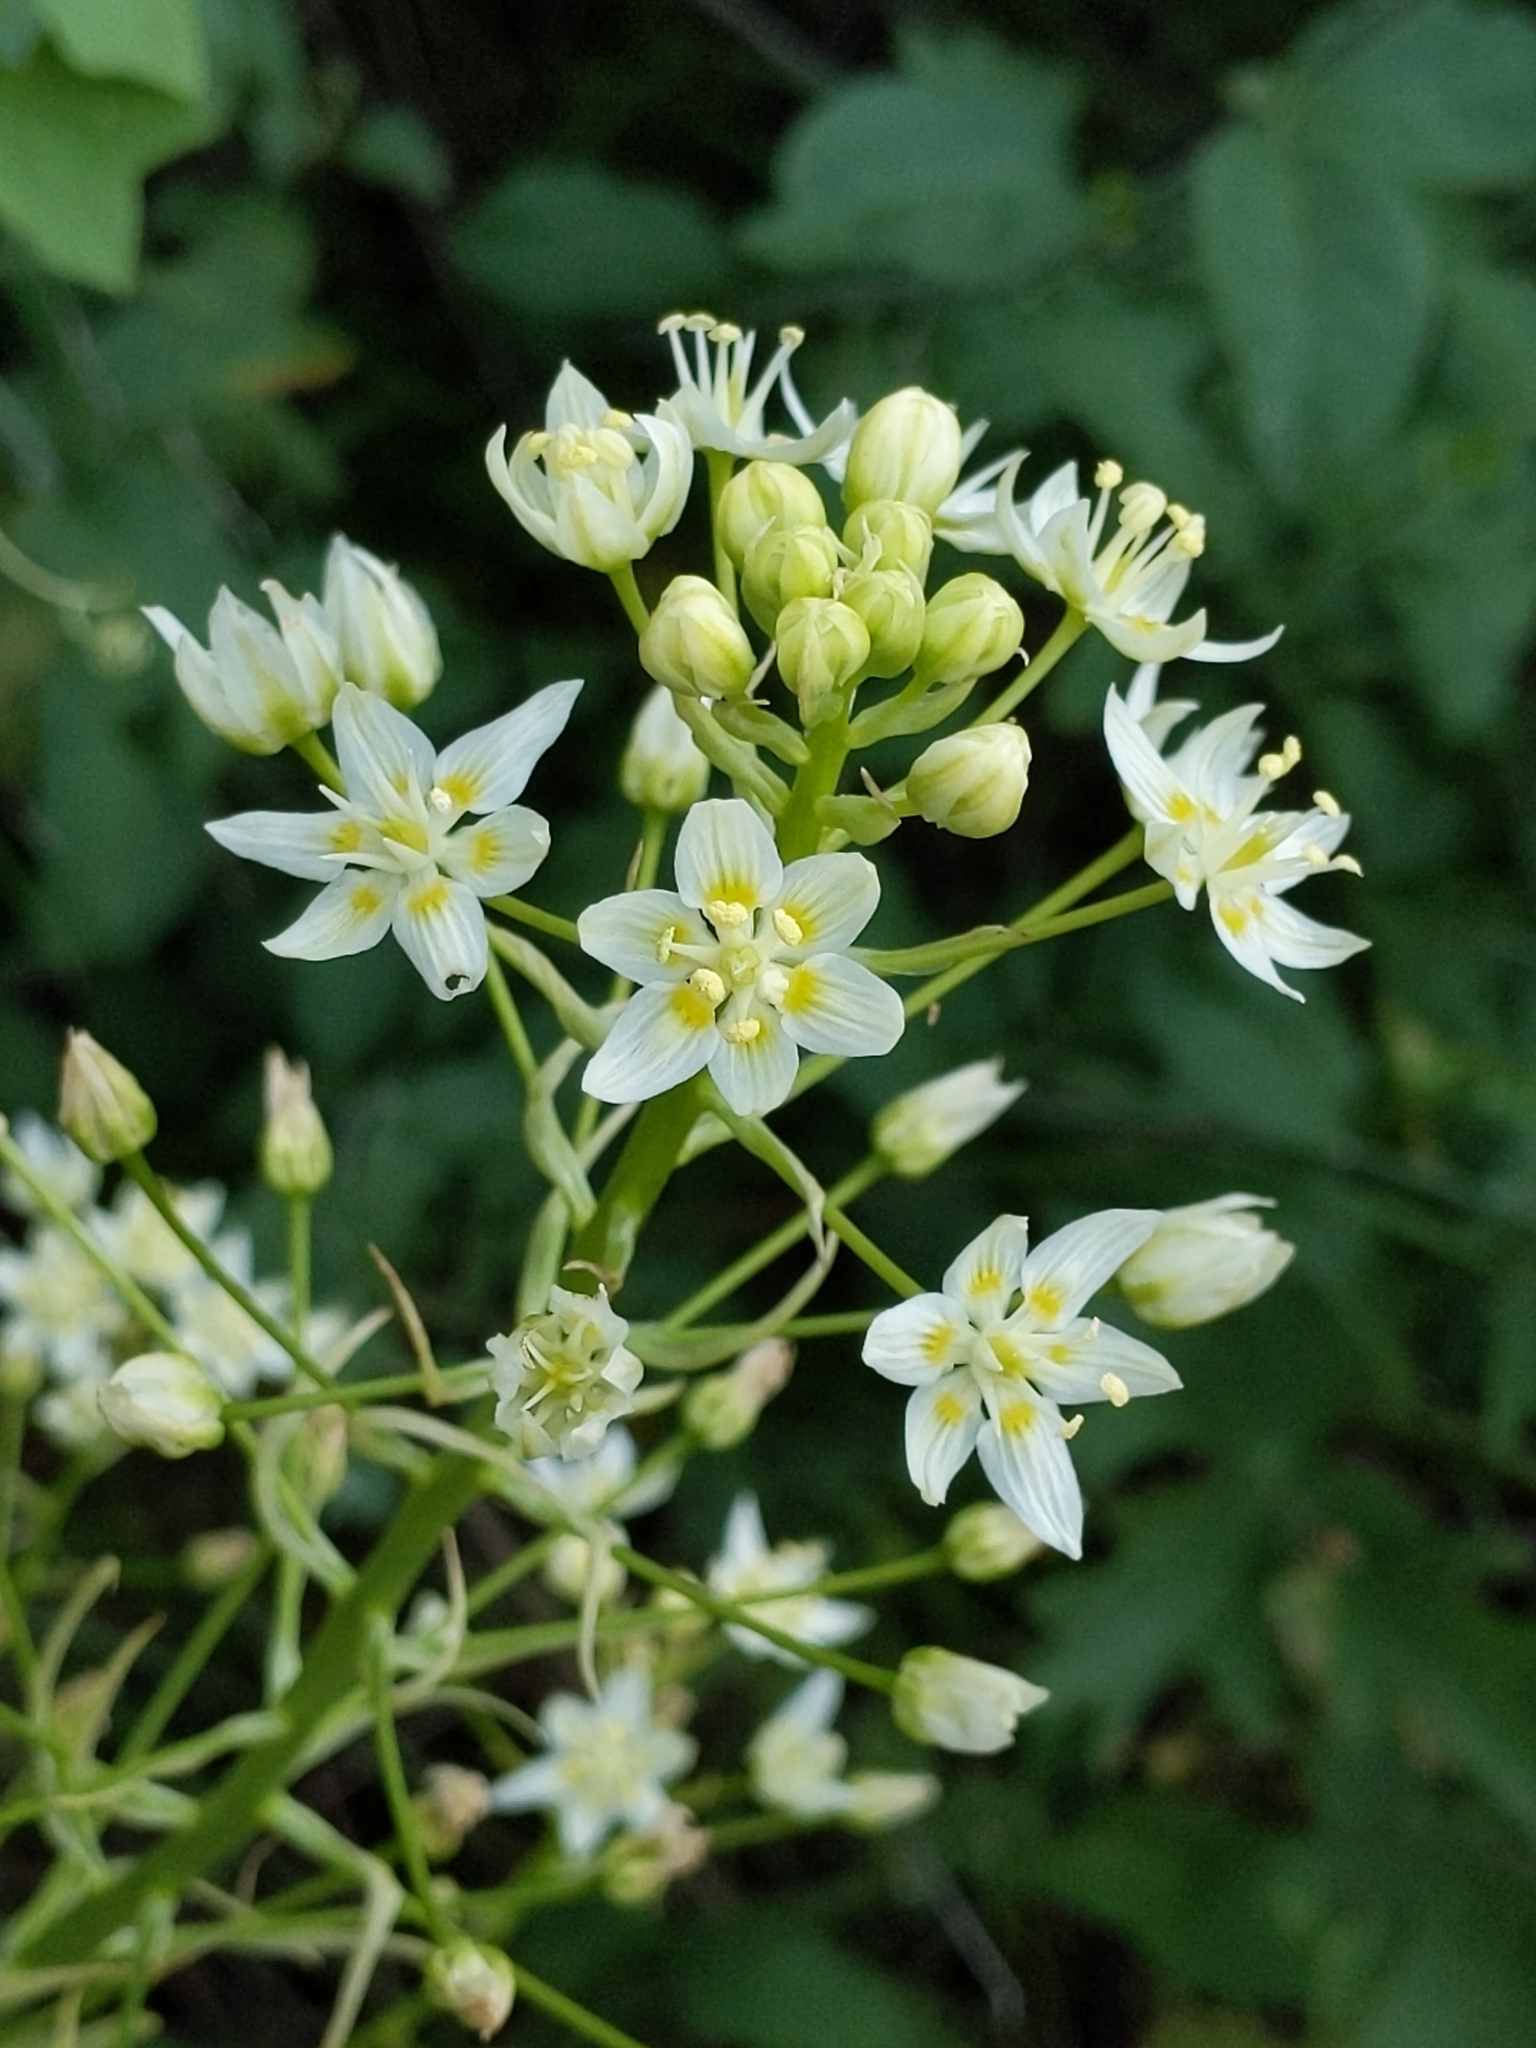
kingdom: Plantae
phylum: Tracheophyta
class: Liliopsida
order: Liliales
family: Melanthiaceae
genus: Toxicoscordion
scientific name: Toxicoscordion fremontii
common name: Fremont's death camas
